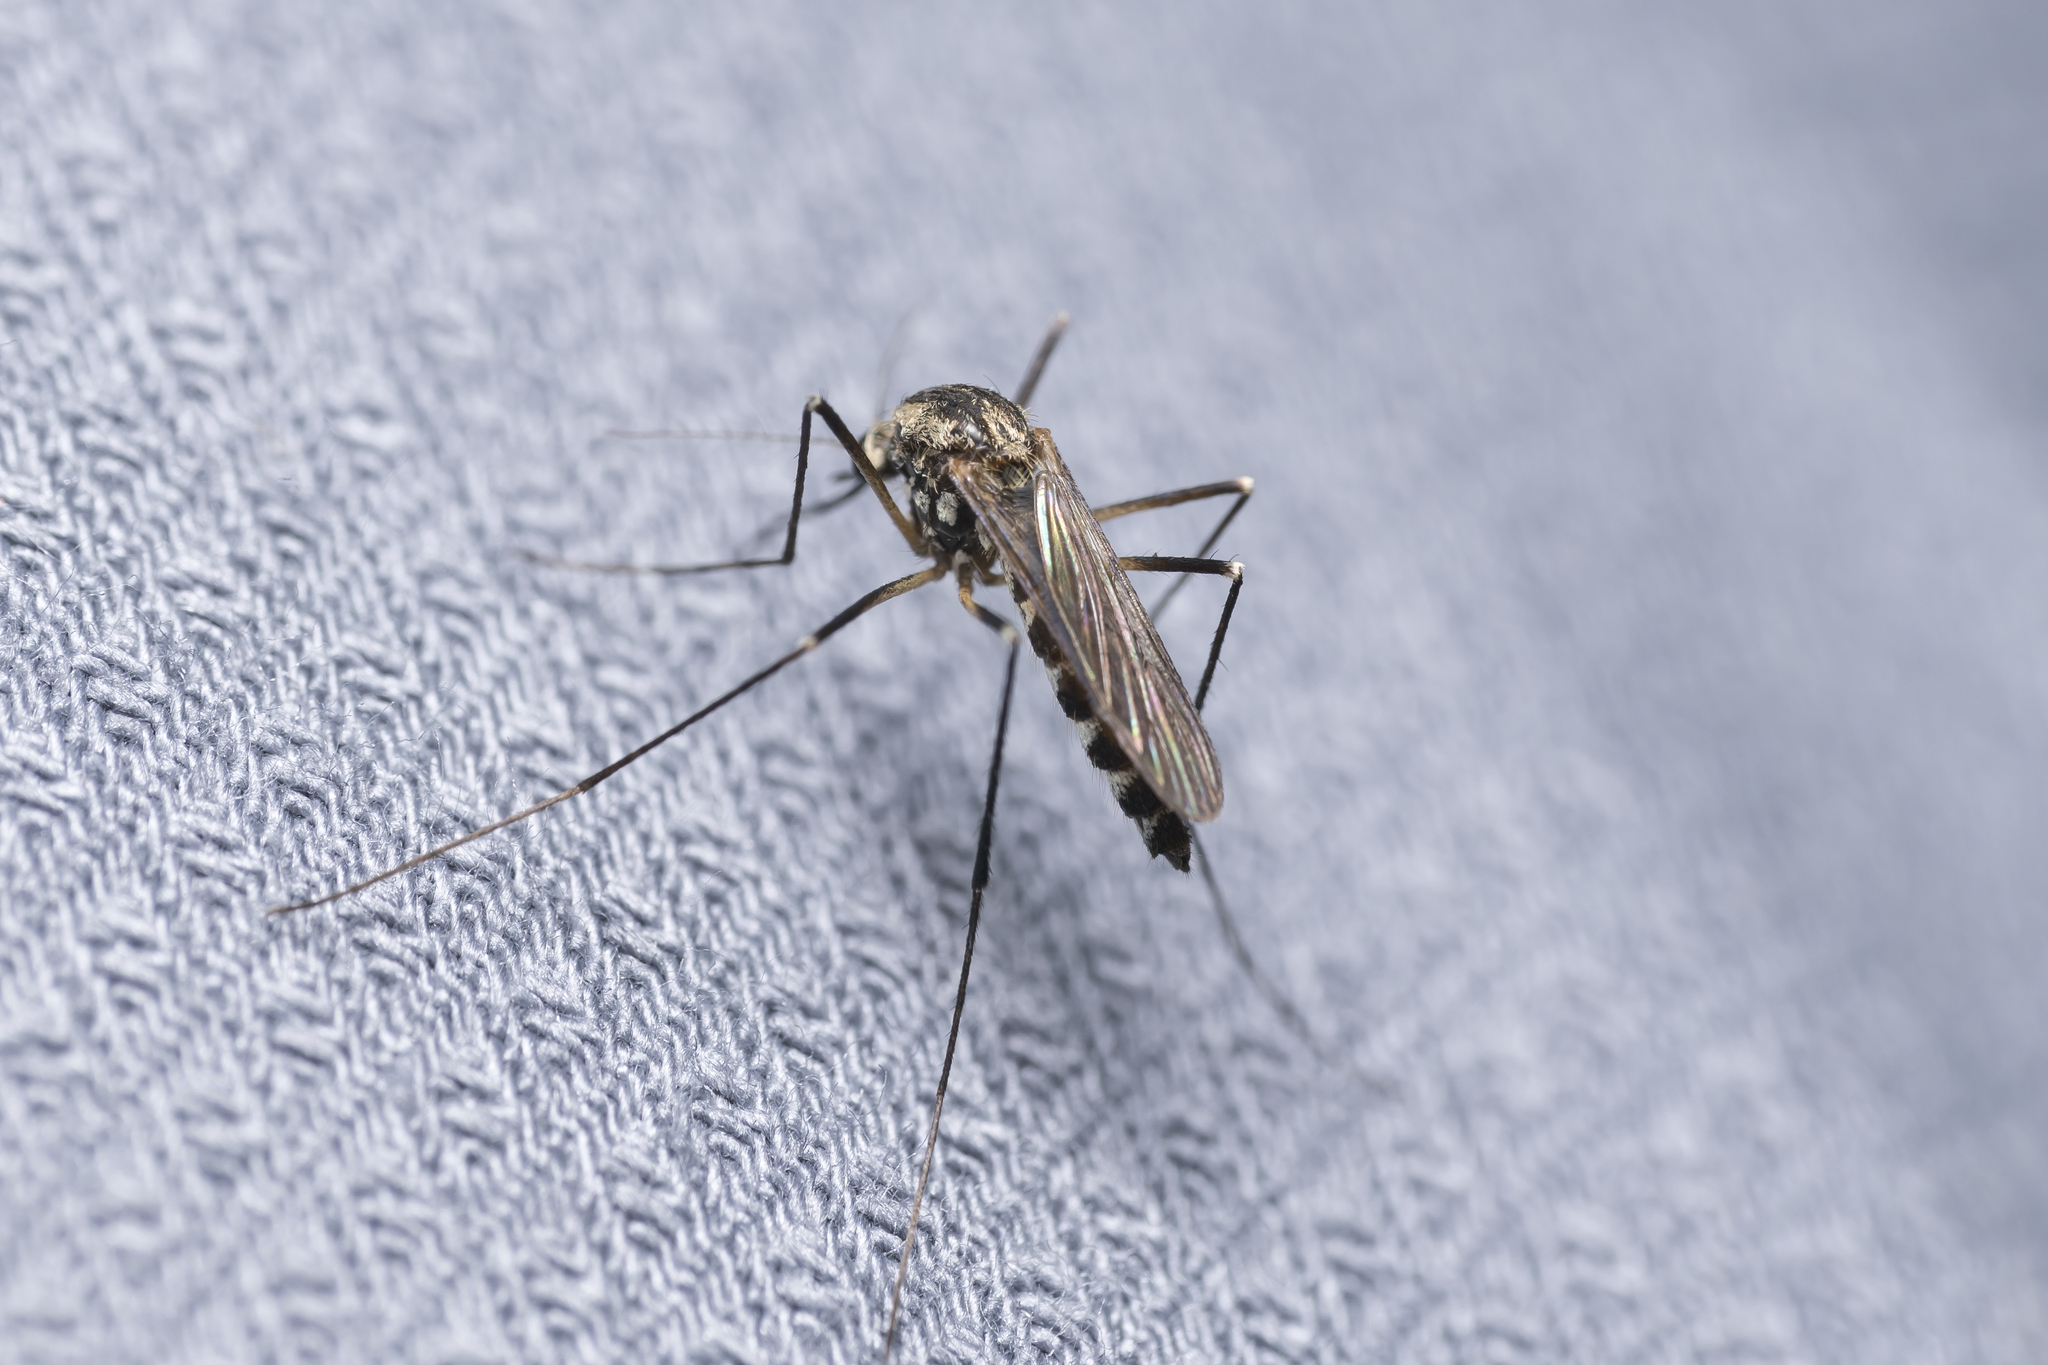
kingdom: Animalia
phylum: Arthropoda
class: Insecta
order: Diptera
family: Culicidae
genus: Aedes
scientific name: Aedes geniculatus
